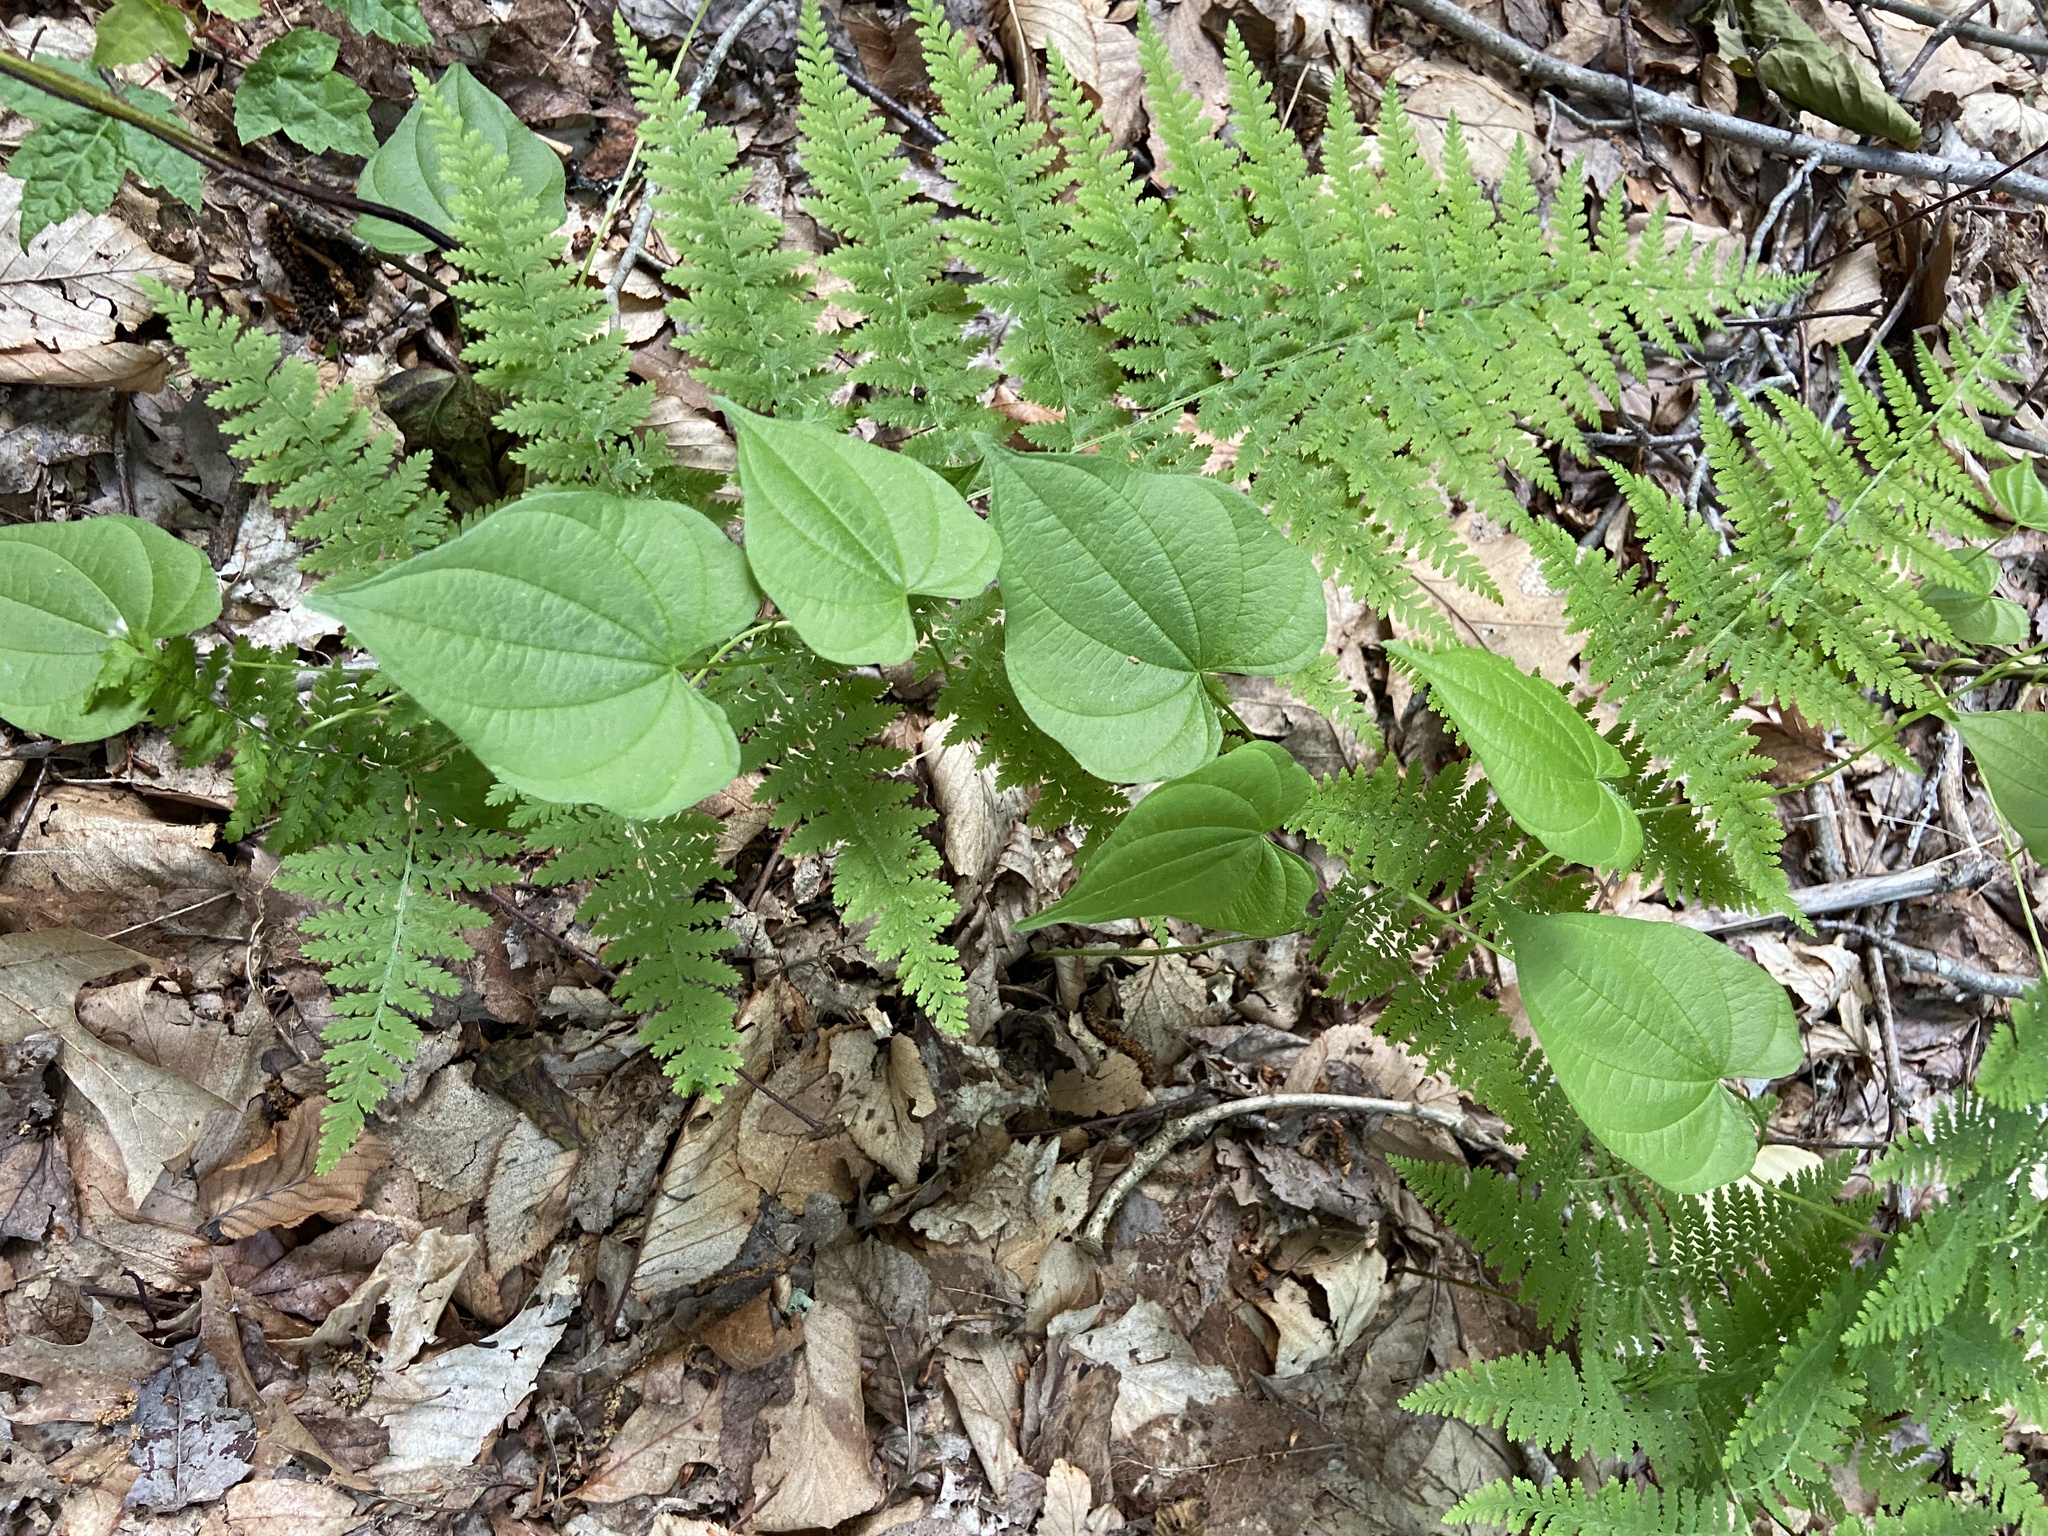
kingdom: Plantae
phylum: Tracheophyta
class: Liliopsida
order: Dioscoreales
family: Dioscoreaceae
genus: Dioscorea
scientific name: Dioscorea villosa
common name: Wild yam
